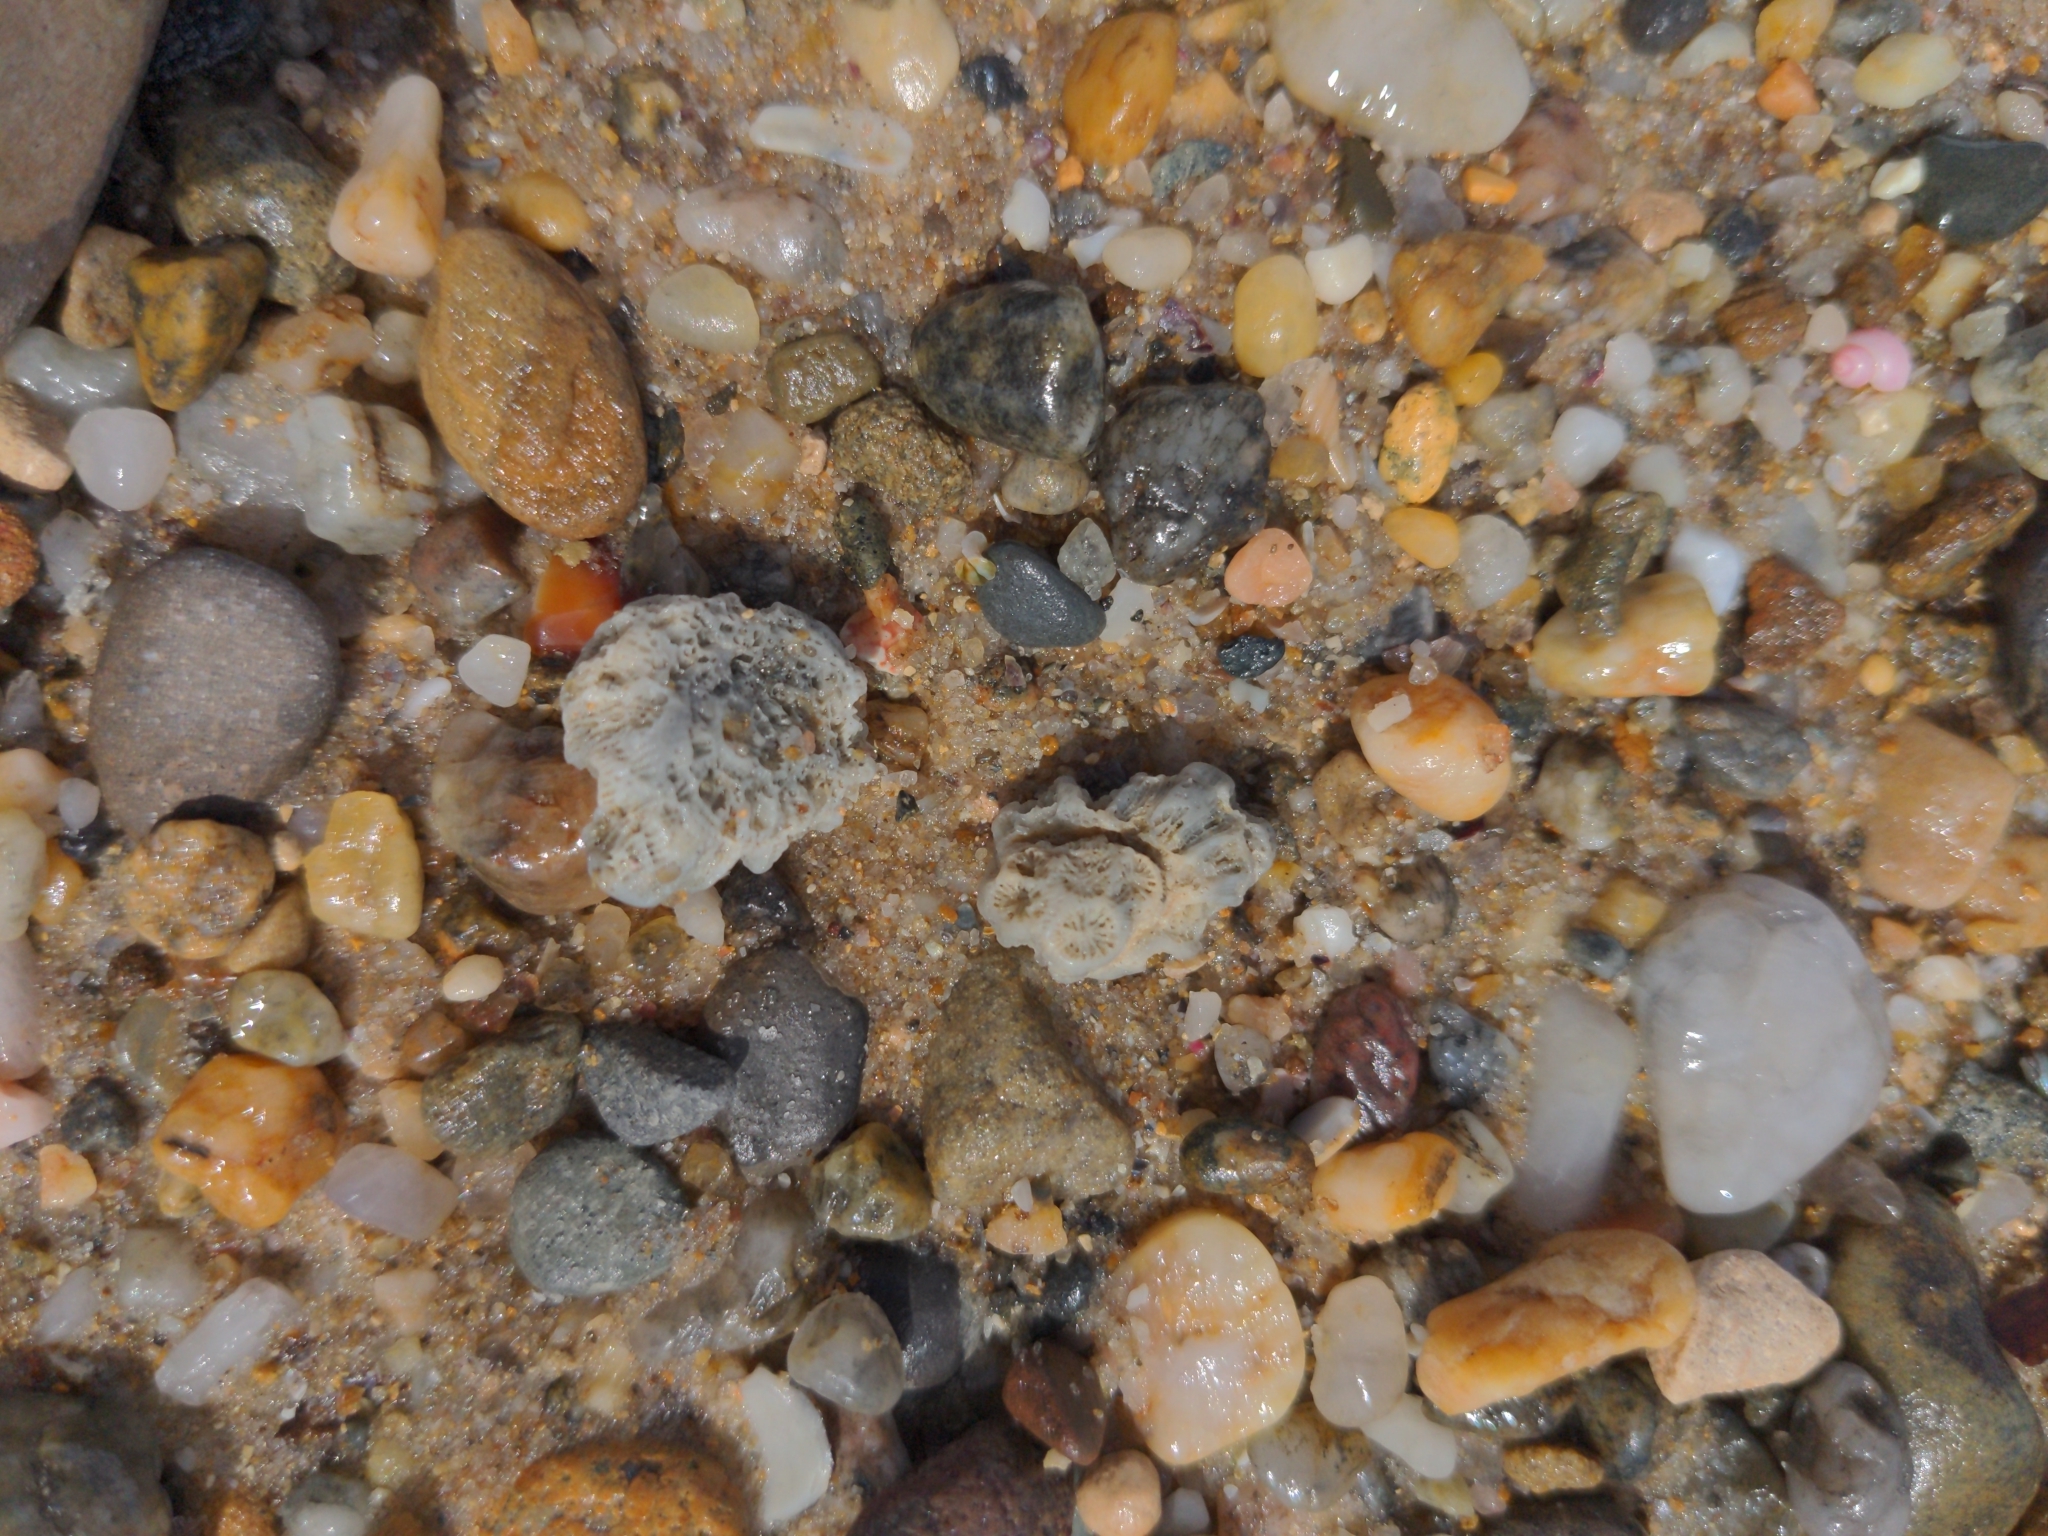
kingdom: Animalia
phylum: Cnidaria
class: Anthozoa
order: Scleractinia
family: Plesiastreidae
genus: Plesiastrea
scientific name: Plesiastrea versipora
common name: Small knob coral
